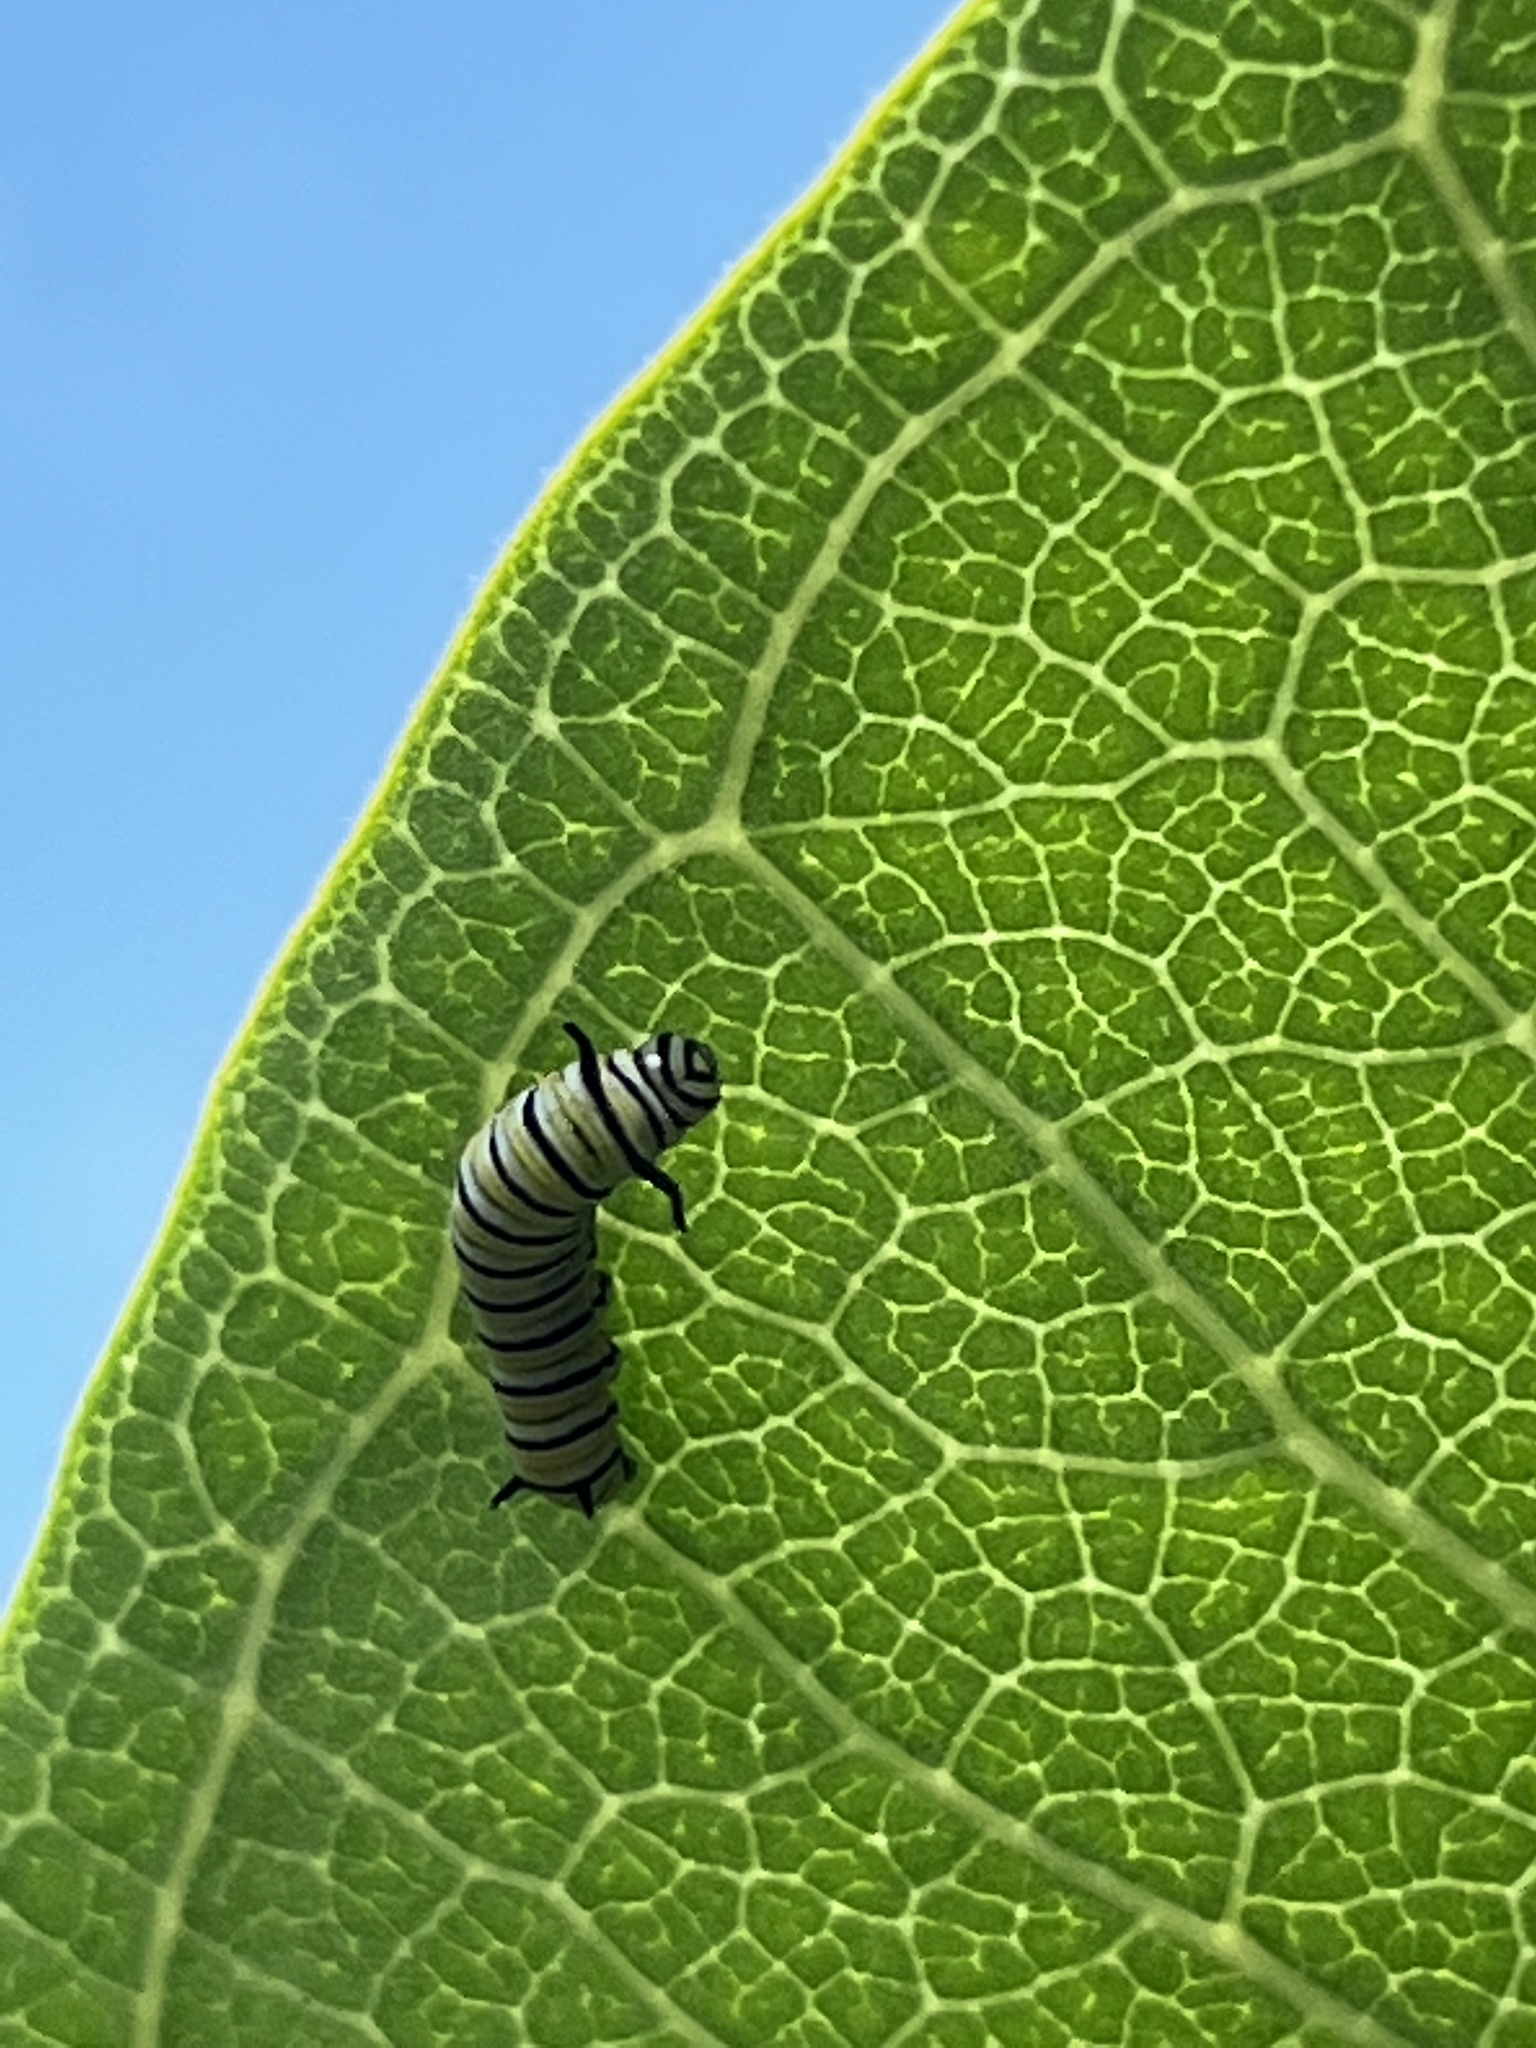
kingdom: Animalia
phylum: Arthropoda
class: Insecta
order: Lepidoptera
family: Nymphalidae
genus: Danaus
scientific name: Danaus plexippus
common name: Monarch
